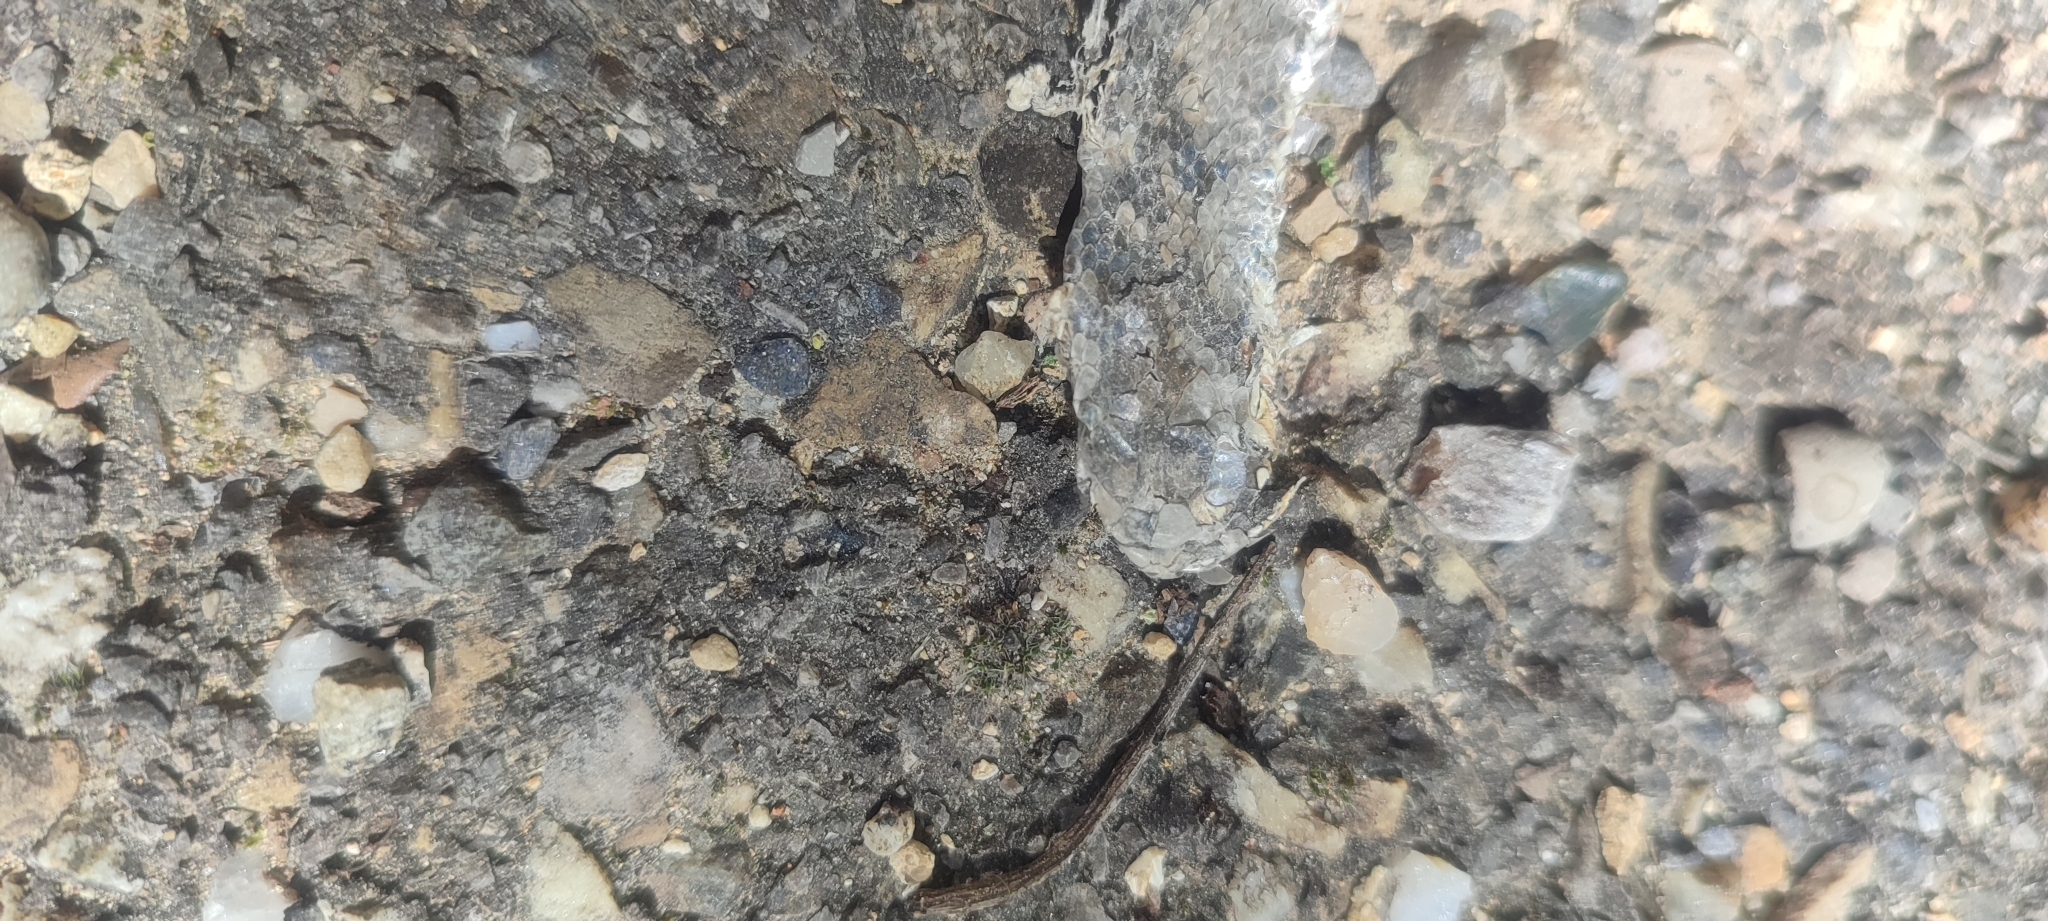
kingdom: Animalia
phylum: Chordata
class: Squamata
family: Psammophiidae
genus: Malpolon
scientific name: Malpolon monspessulanus
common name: Montpellier snake
